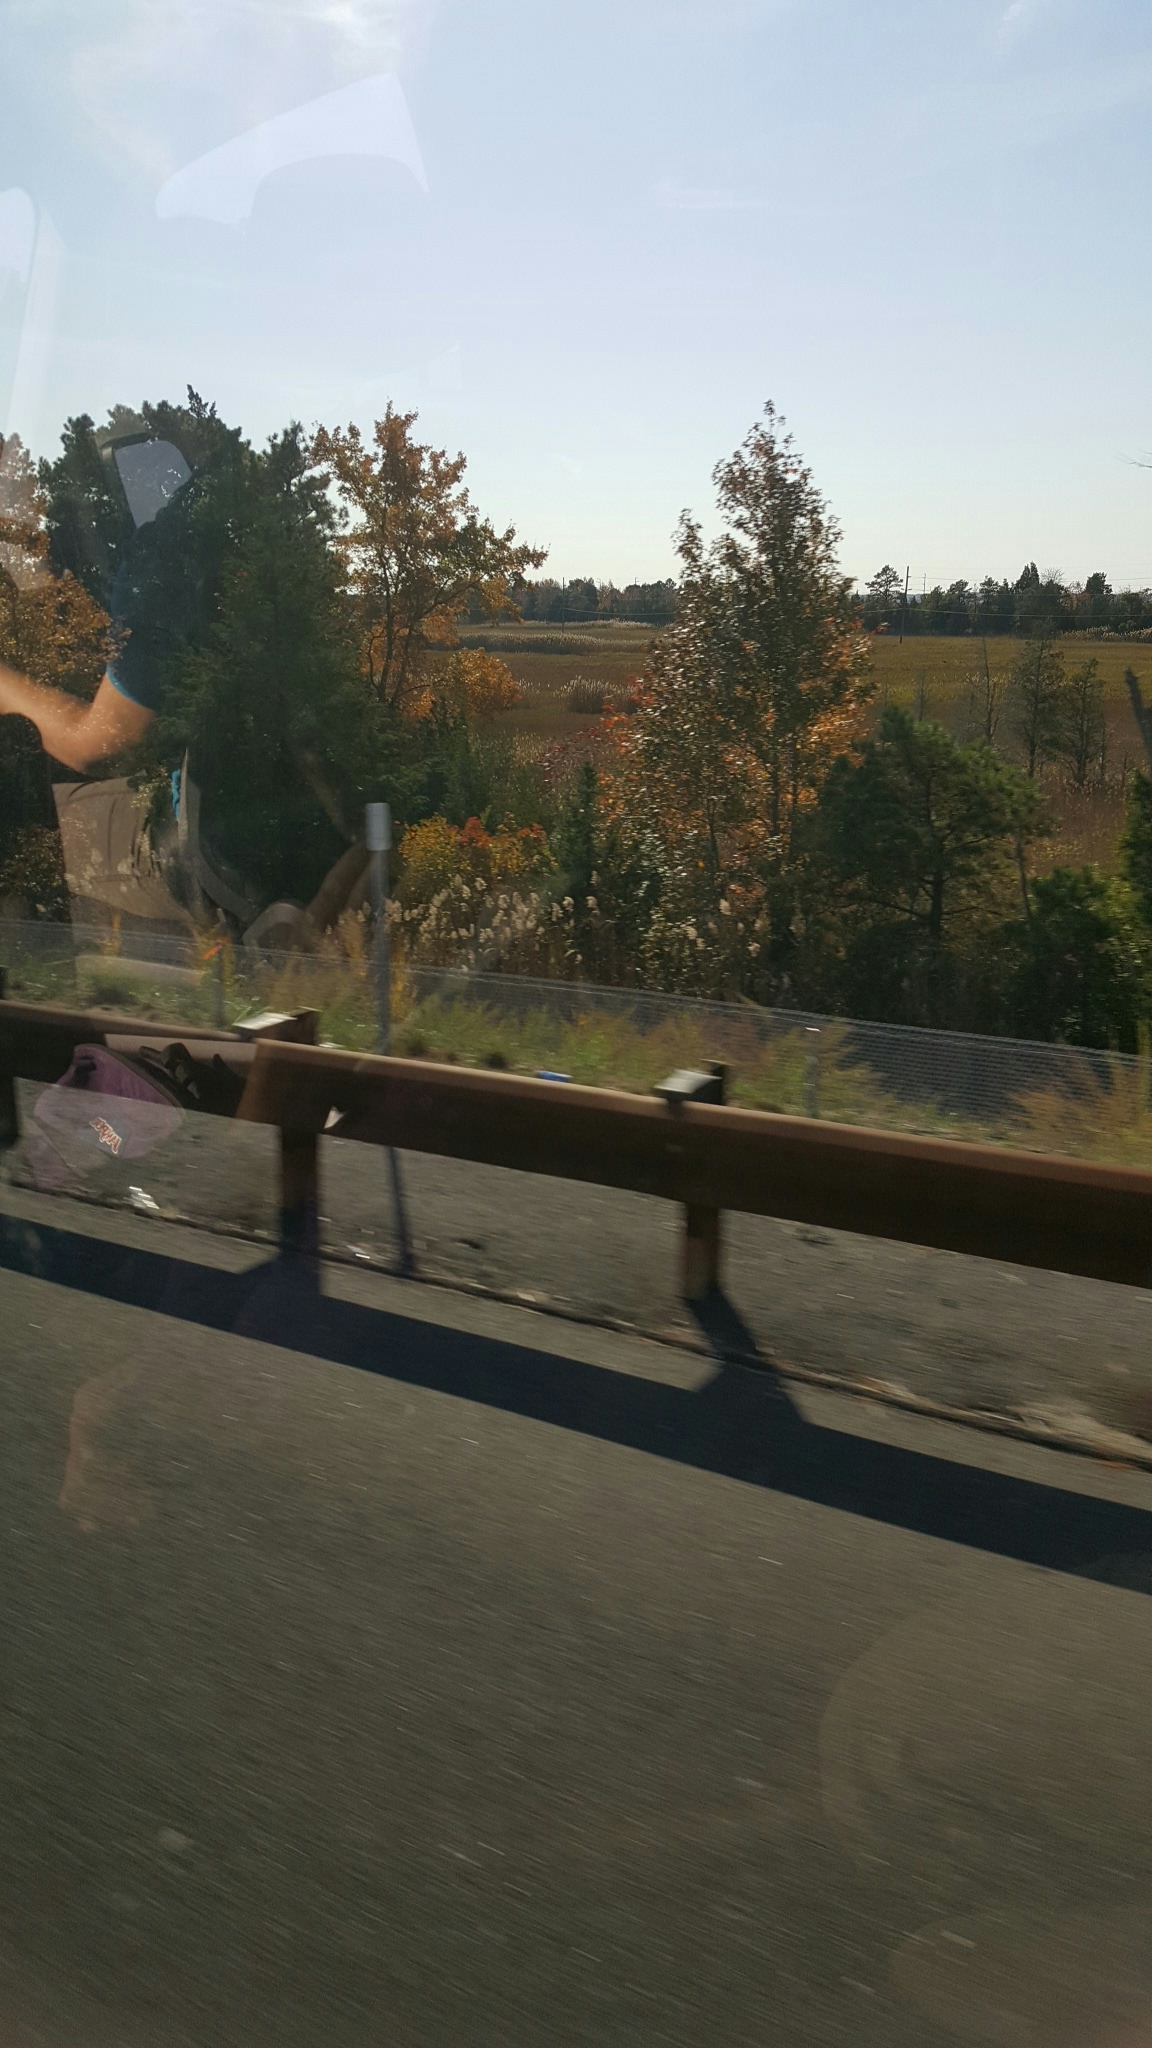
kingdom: Plantae
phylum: Tracheophyta
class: Liliopsida
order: Poales
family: Poaceae
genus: Phragmites
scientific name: Phragmites australis
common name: Common reed
